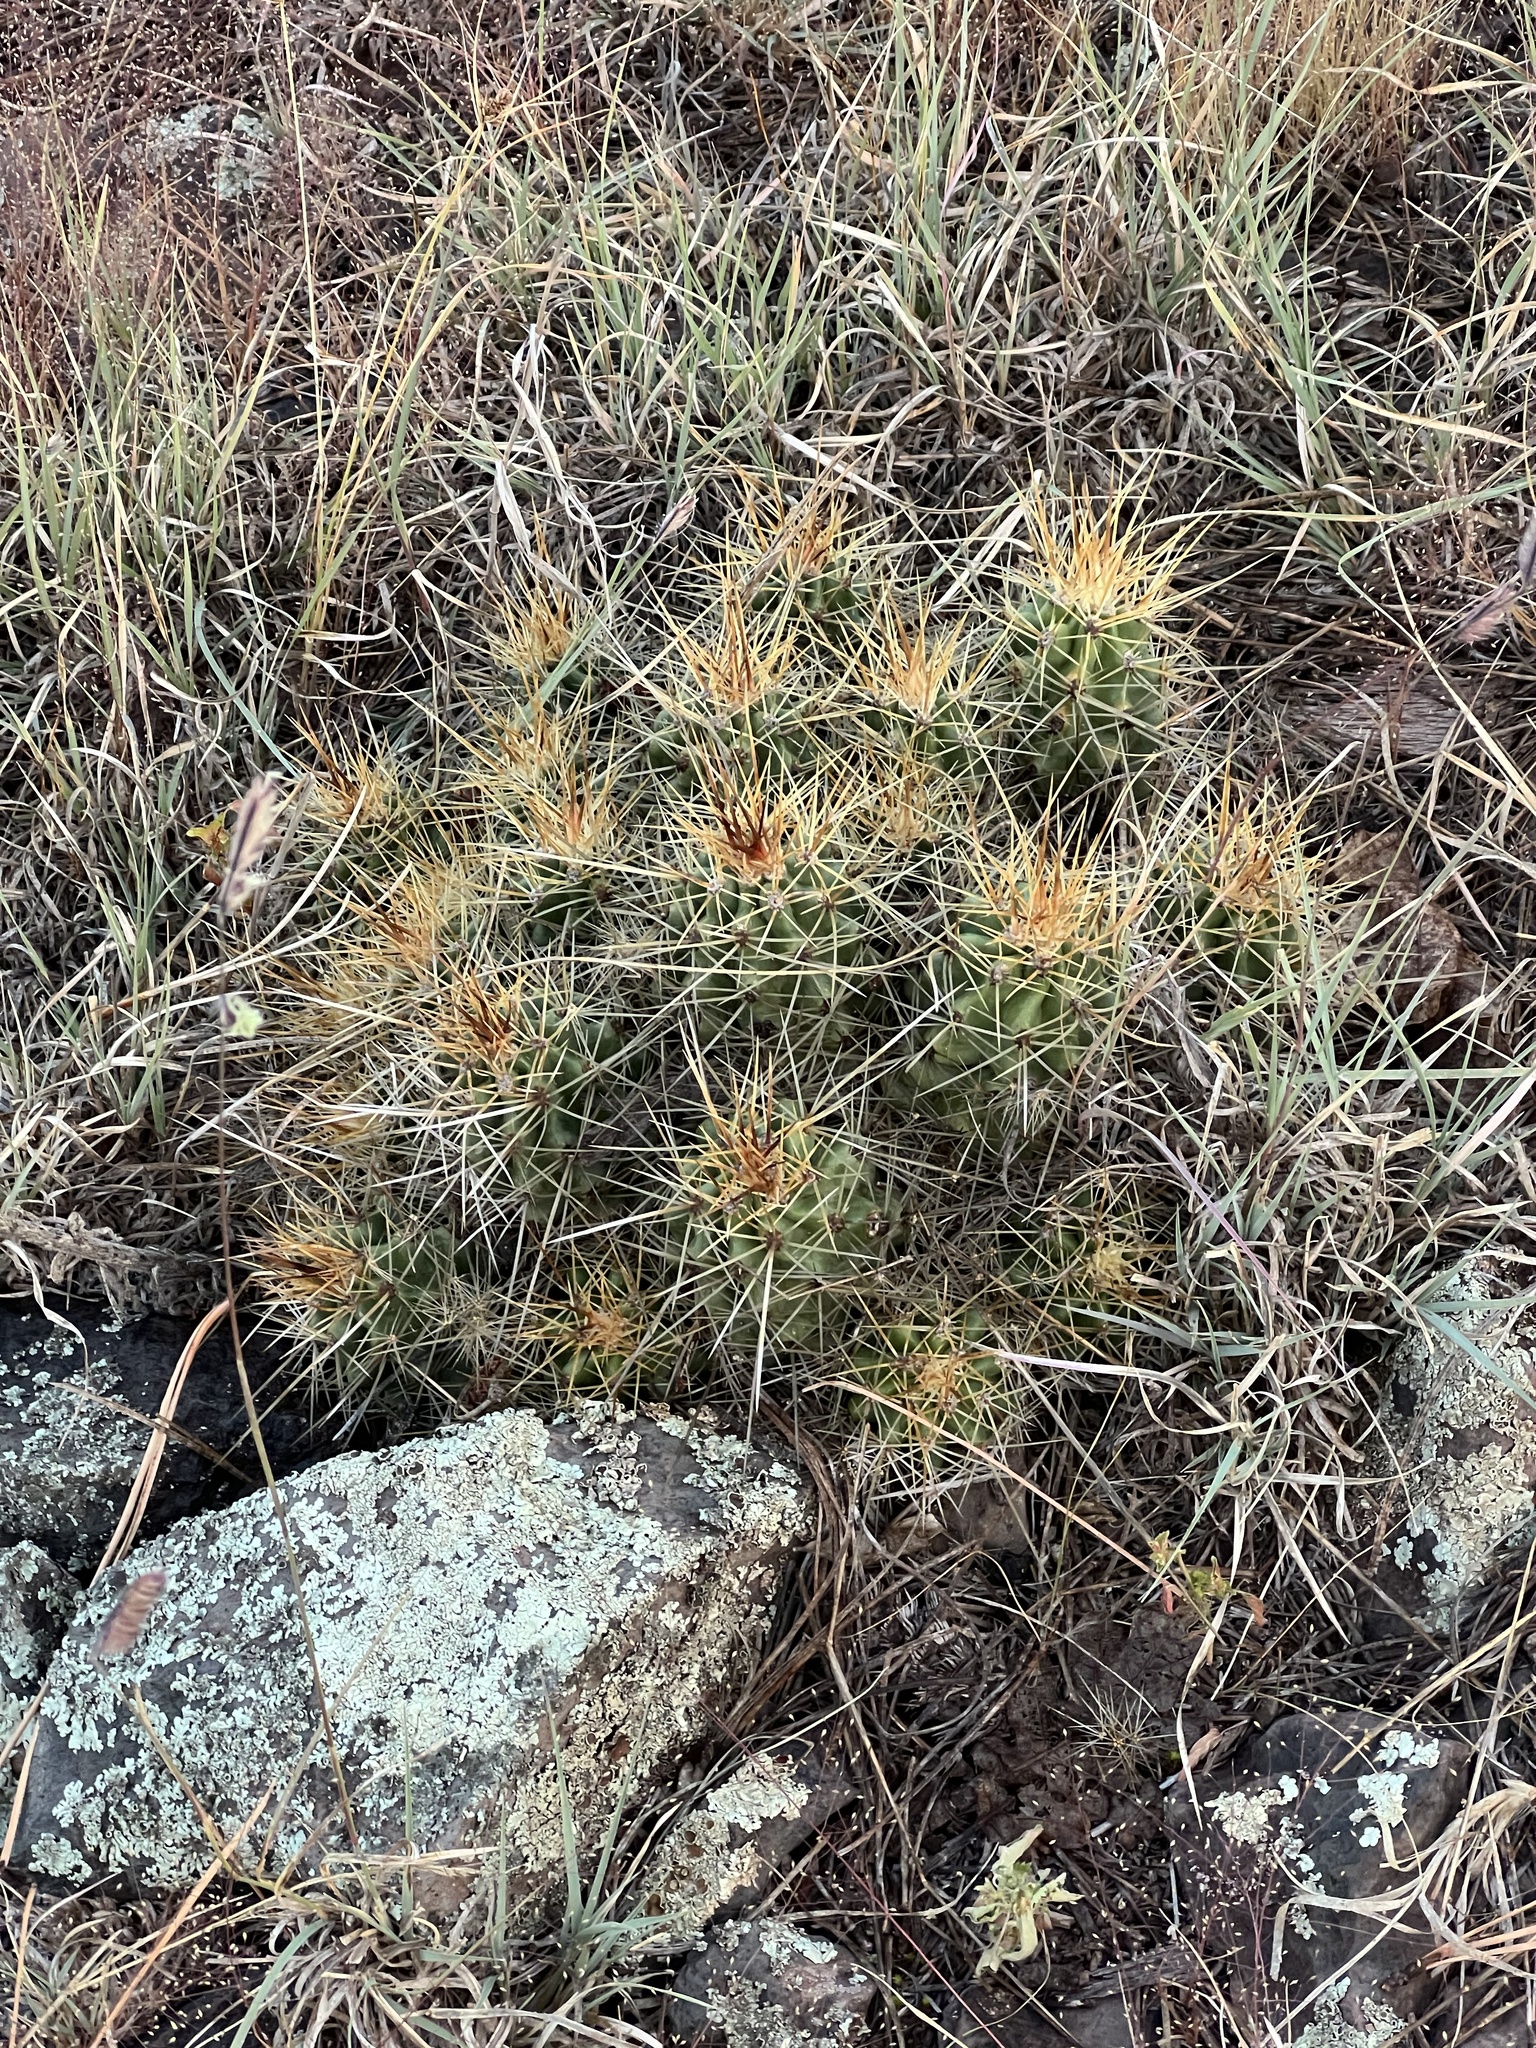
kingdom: Plantae
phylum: Tracheophyta
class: Magnoliopsida
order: Caryophyllales
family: Cactaceae
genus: Echinocereus
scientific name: Echinocereus bakeri
